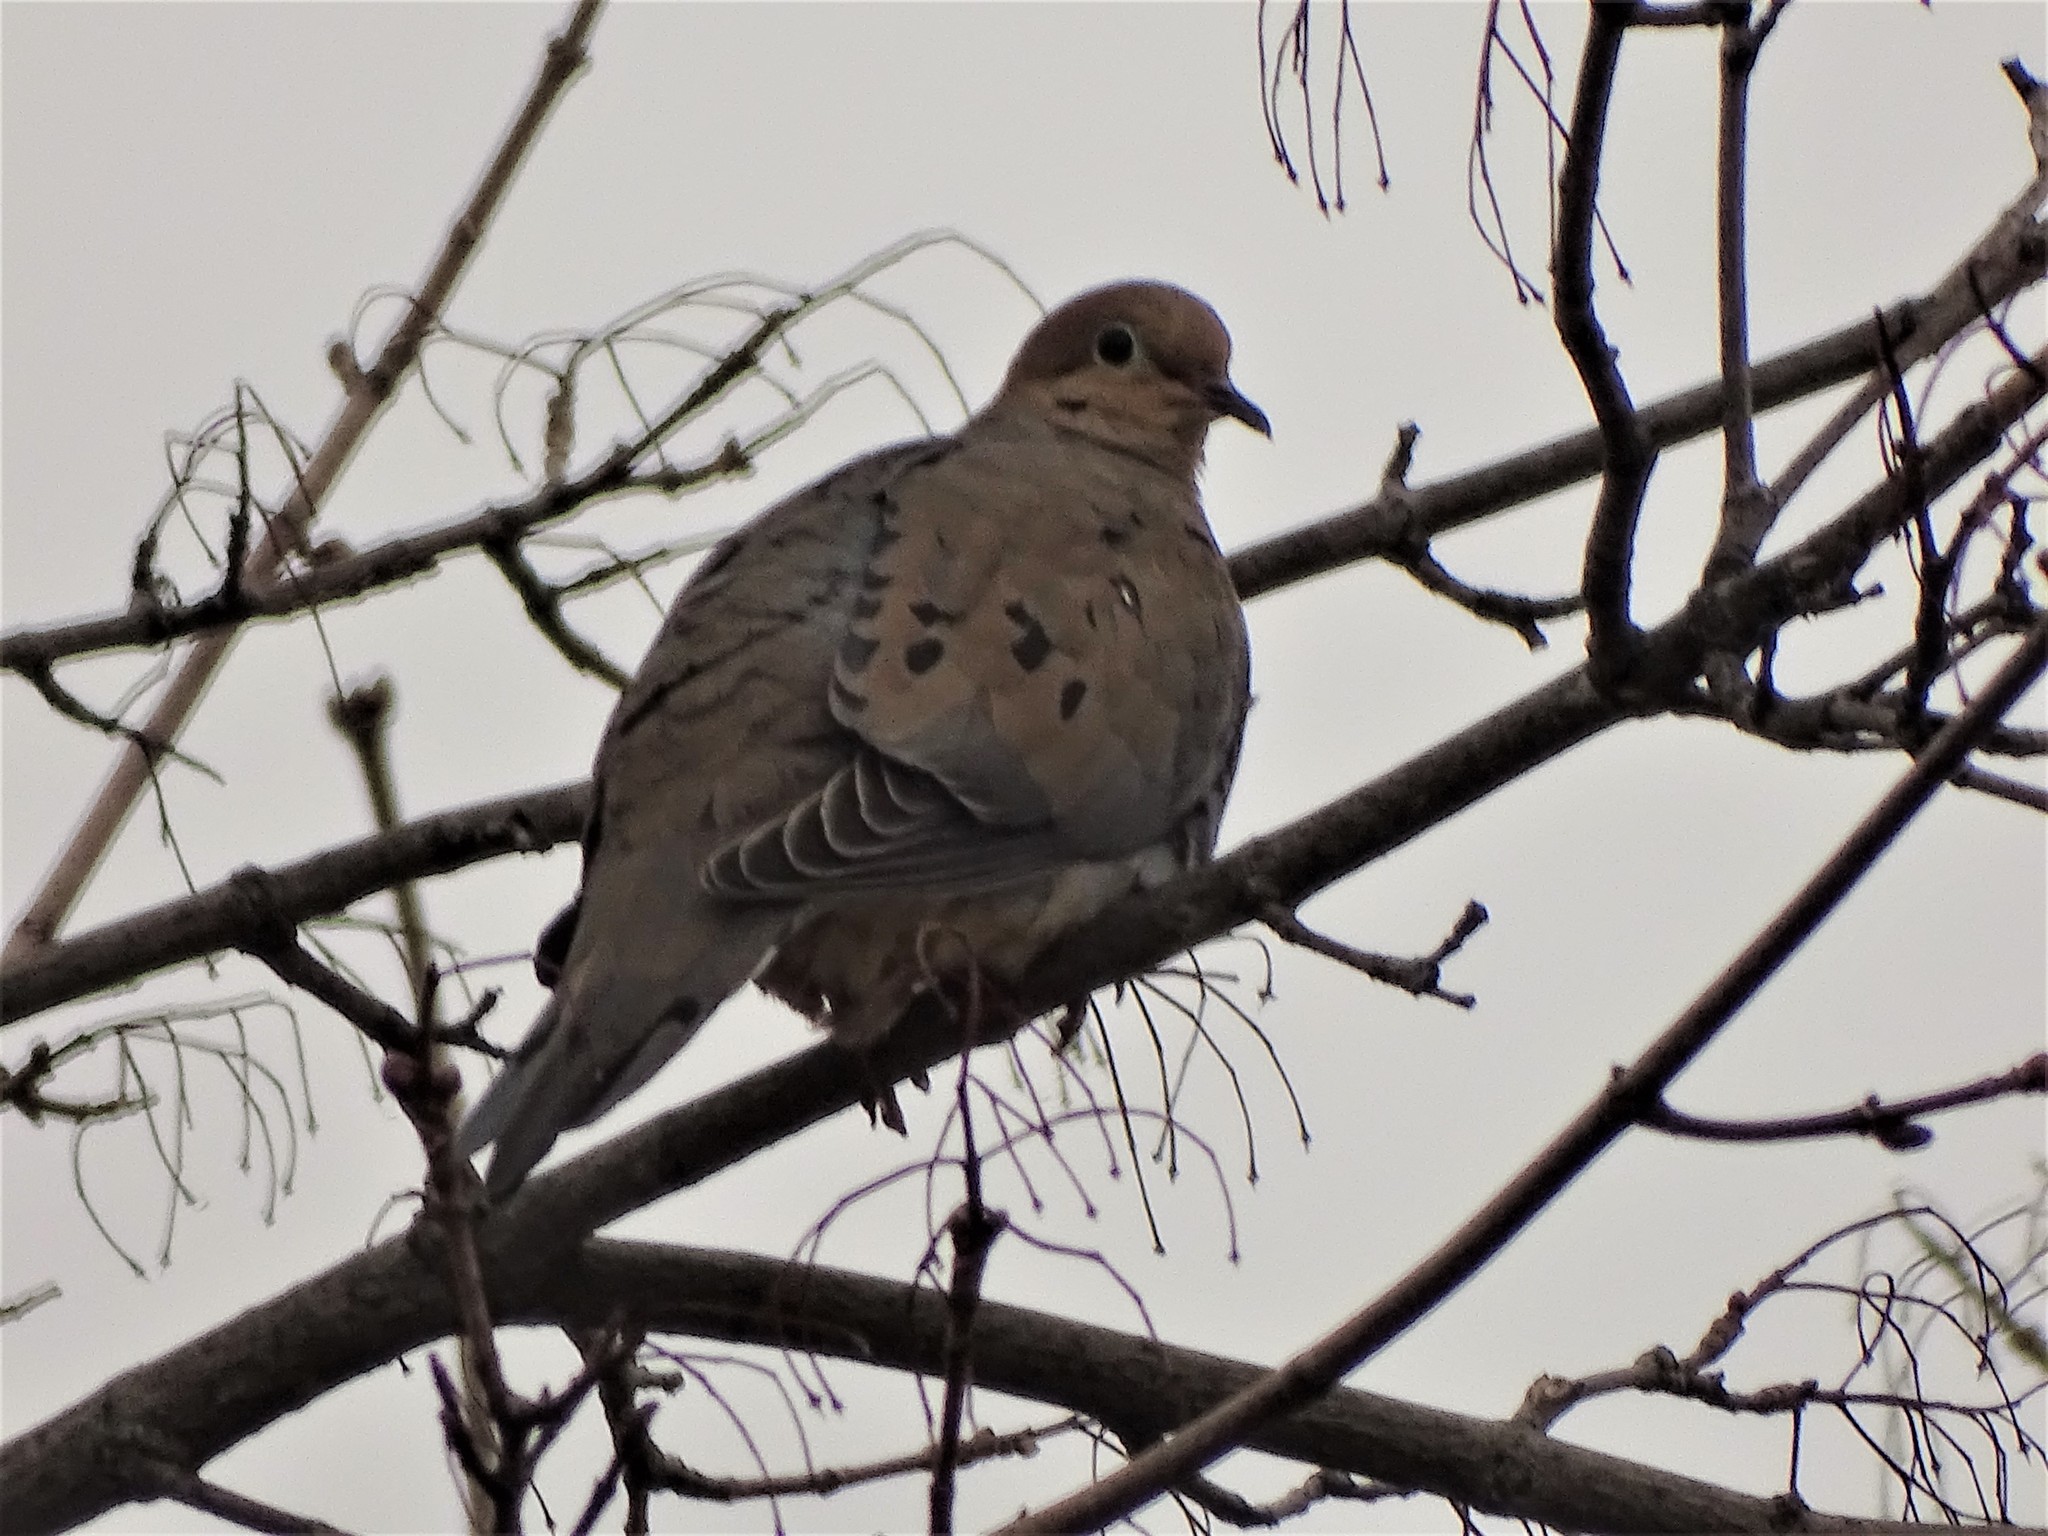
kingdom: Animalia
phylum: Chordata
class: Aves
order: Columbiformes
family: Columbidae
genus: Zenaida
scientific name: Zenaida macroura
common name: Mourning dove
